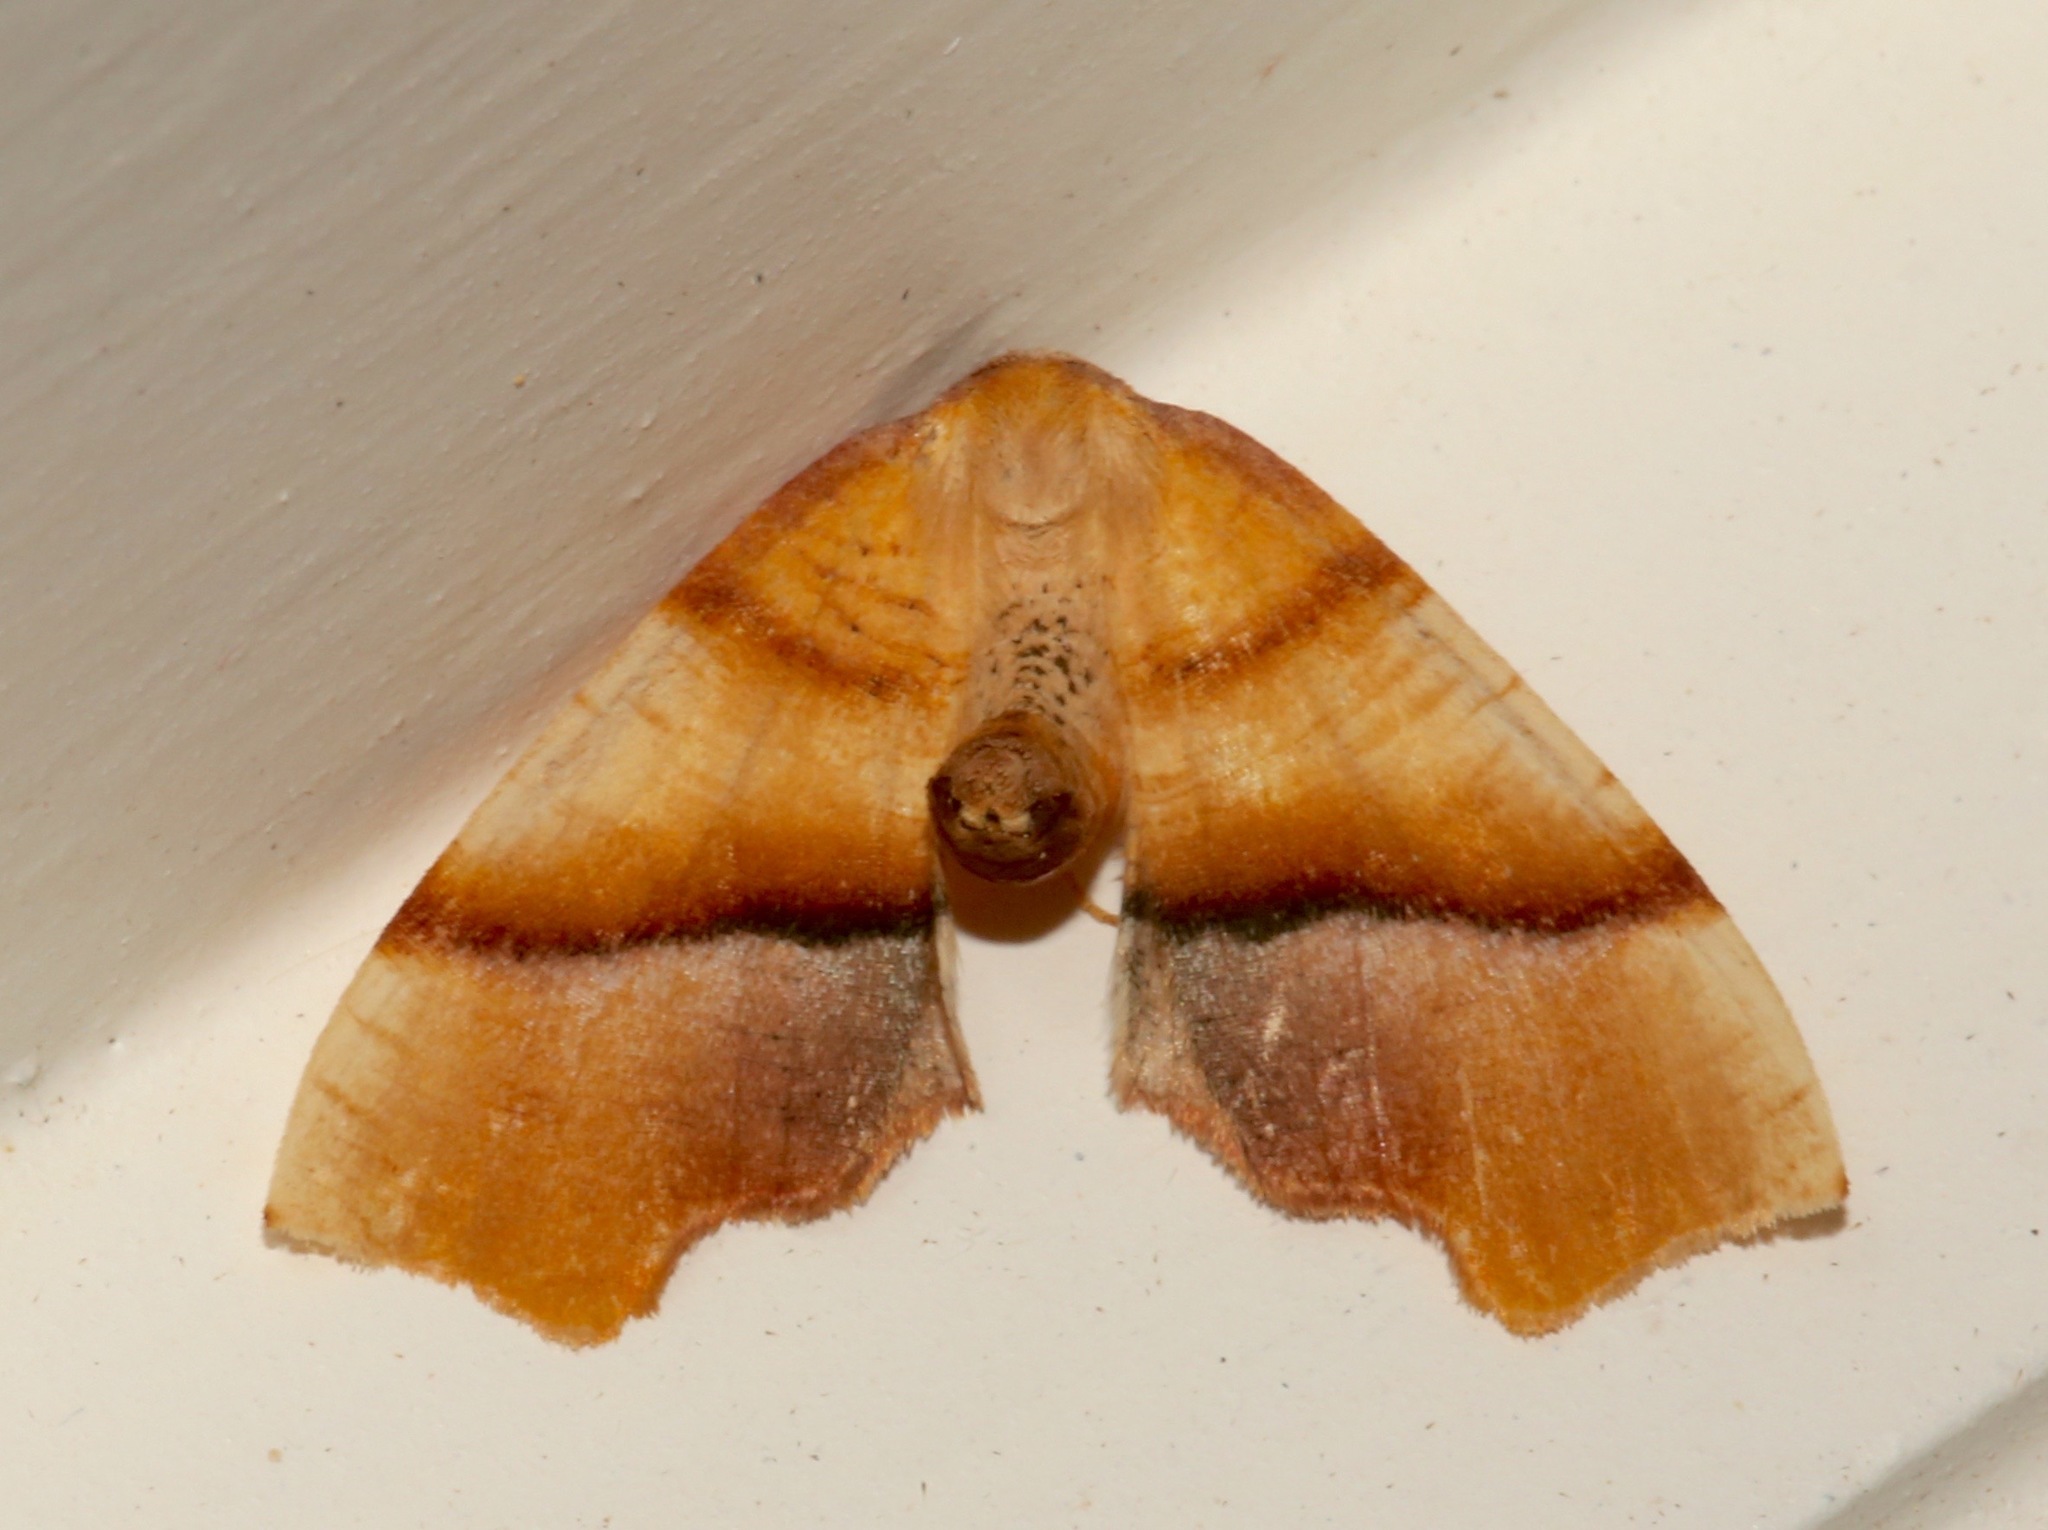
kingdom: Animalia
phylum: Arthropoda
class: Insecta
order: Lepidoptera
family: Geometridae
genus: Plagodis
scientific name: Plagodis phlogosaria
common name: Straight-lined plagodis
